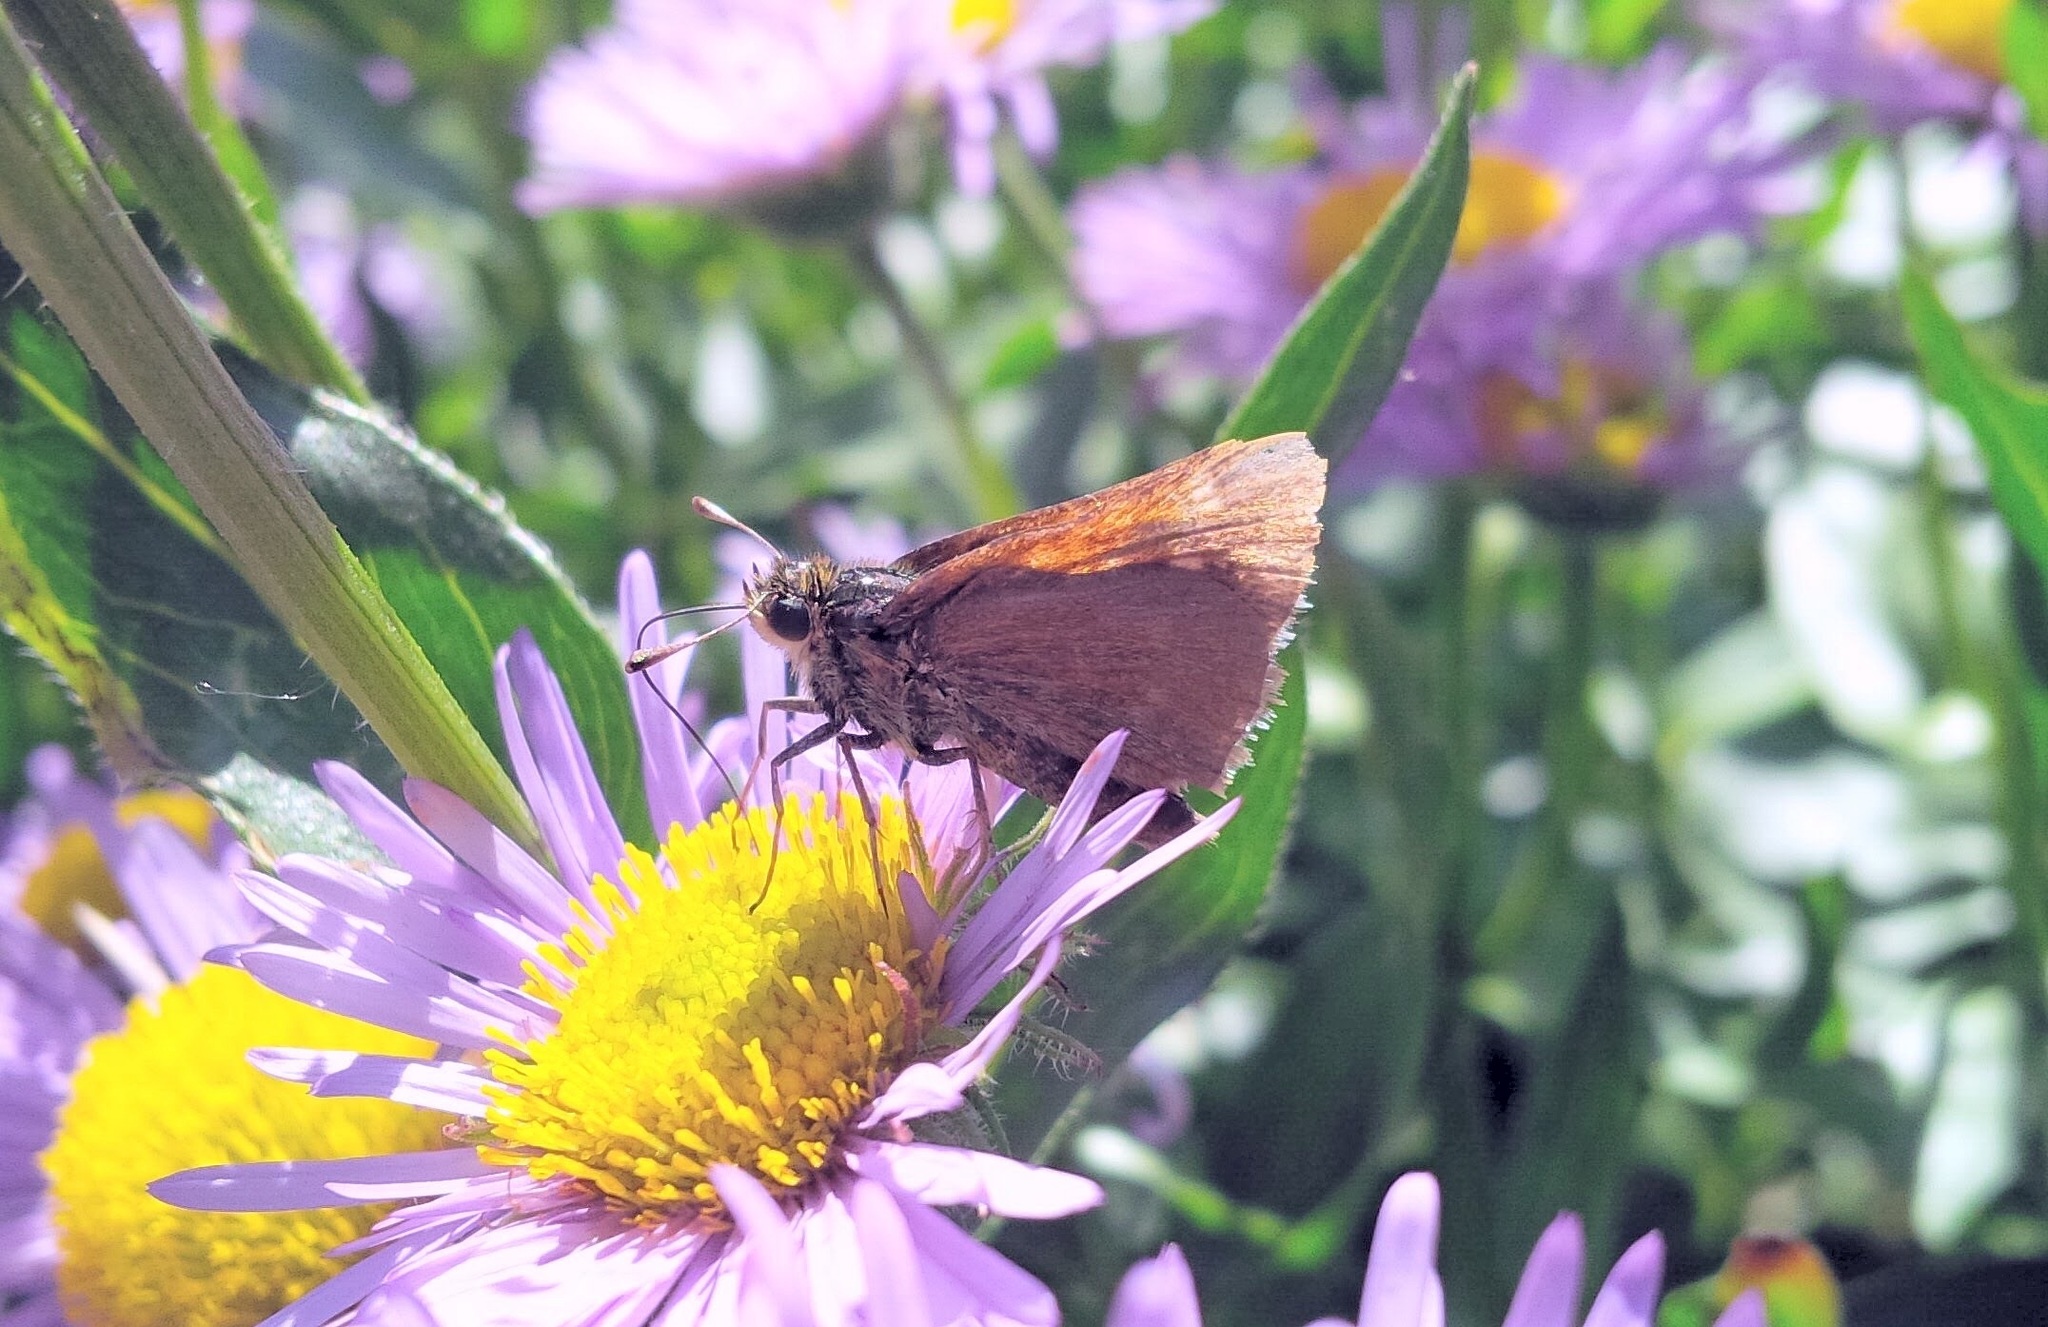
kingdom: Animalia
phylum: Arthropoda
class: Insecta
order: Lepidoptera
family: Hesperiidae
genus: Polites
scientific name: Polites themistocles
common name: Tawny-edged skipper
